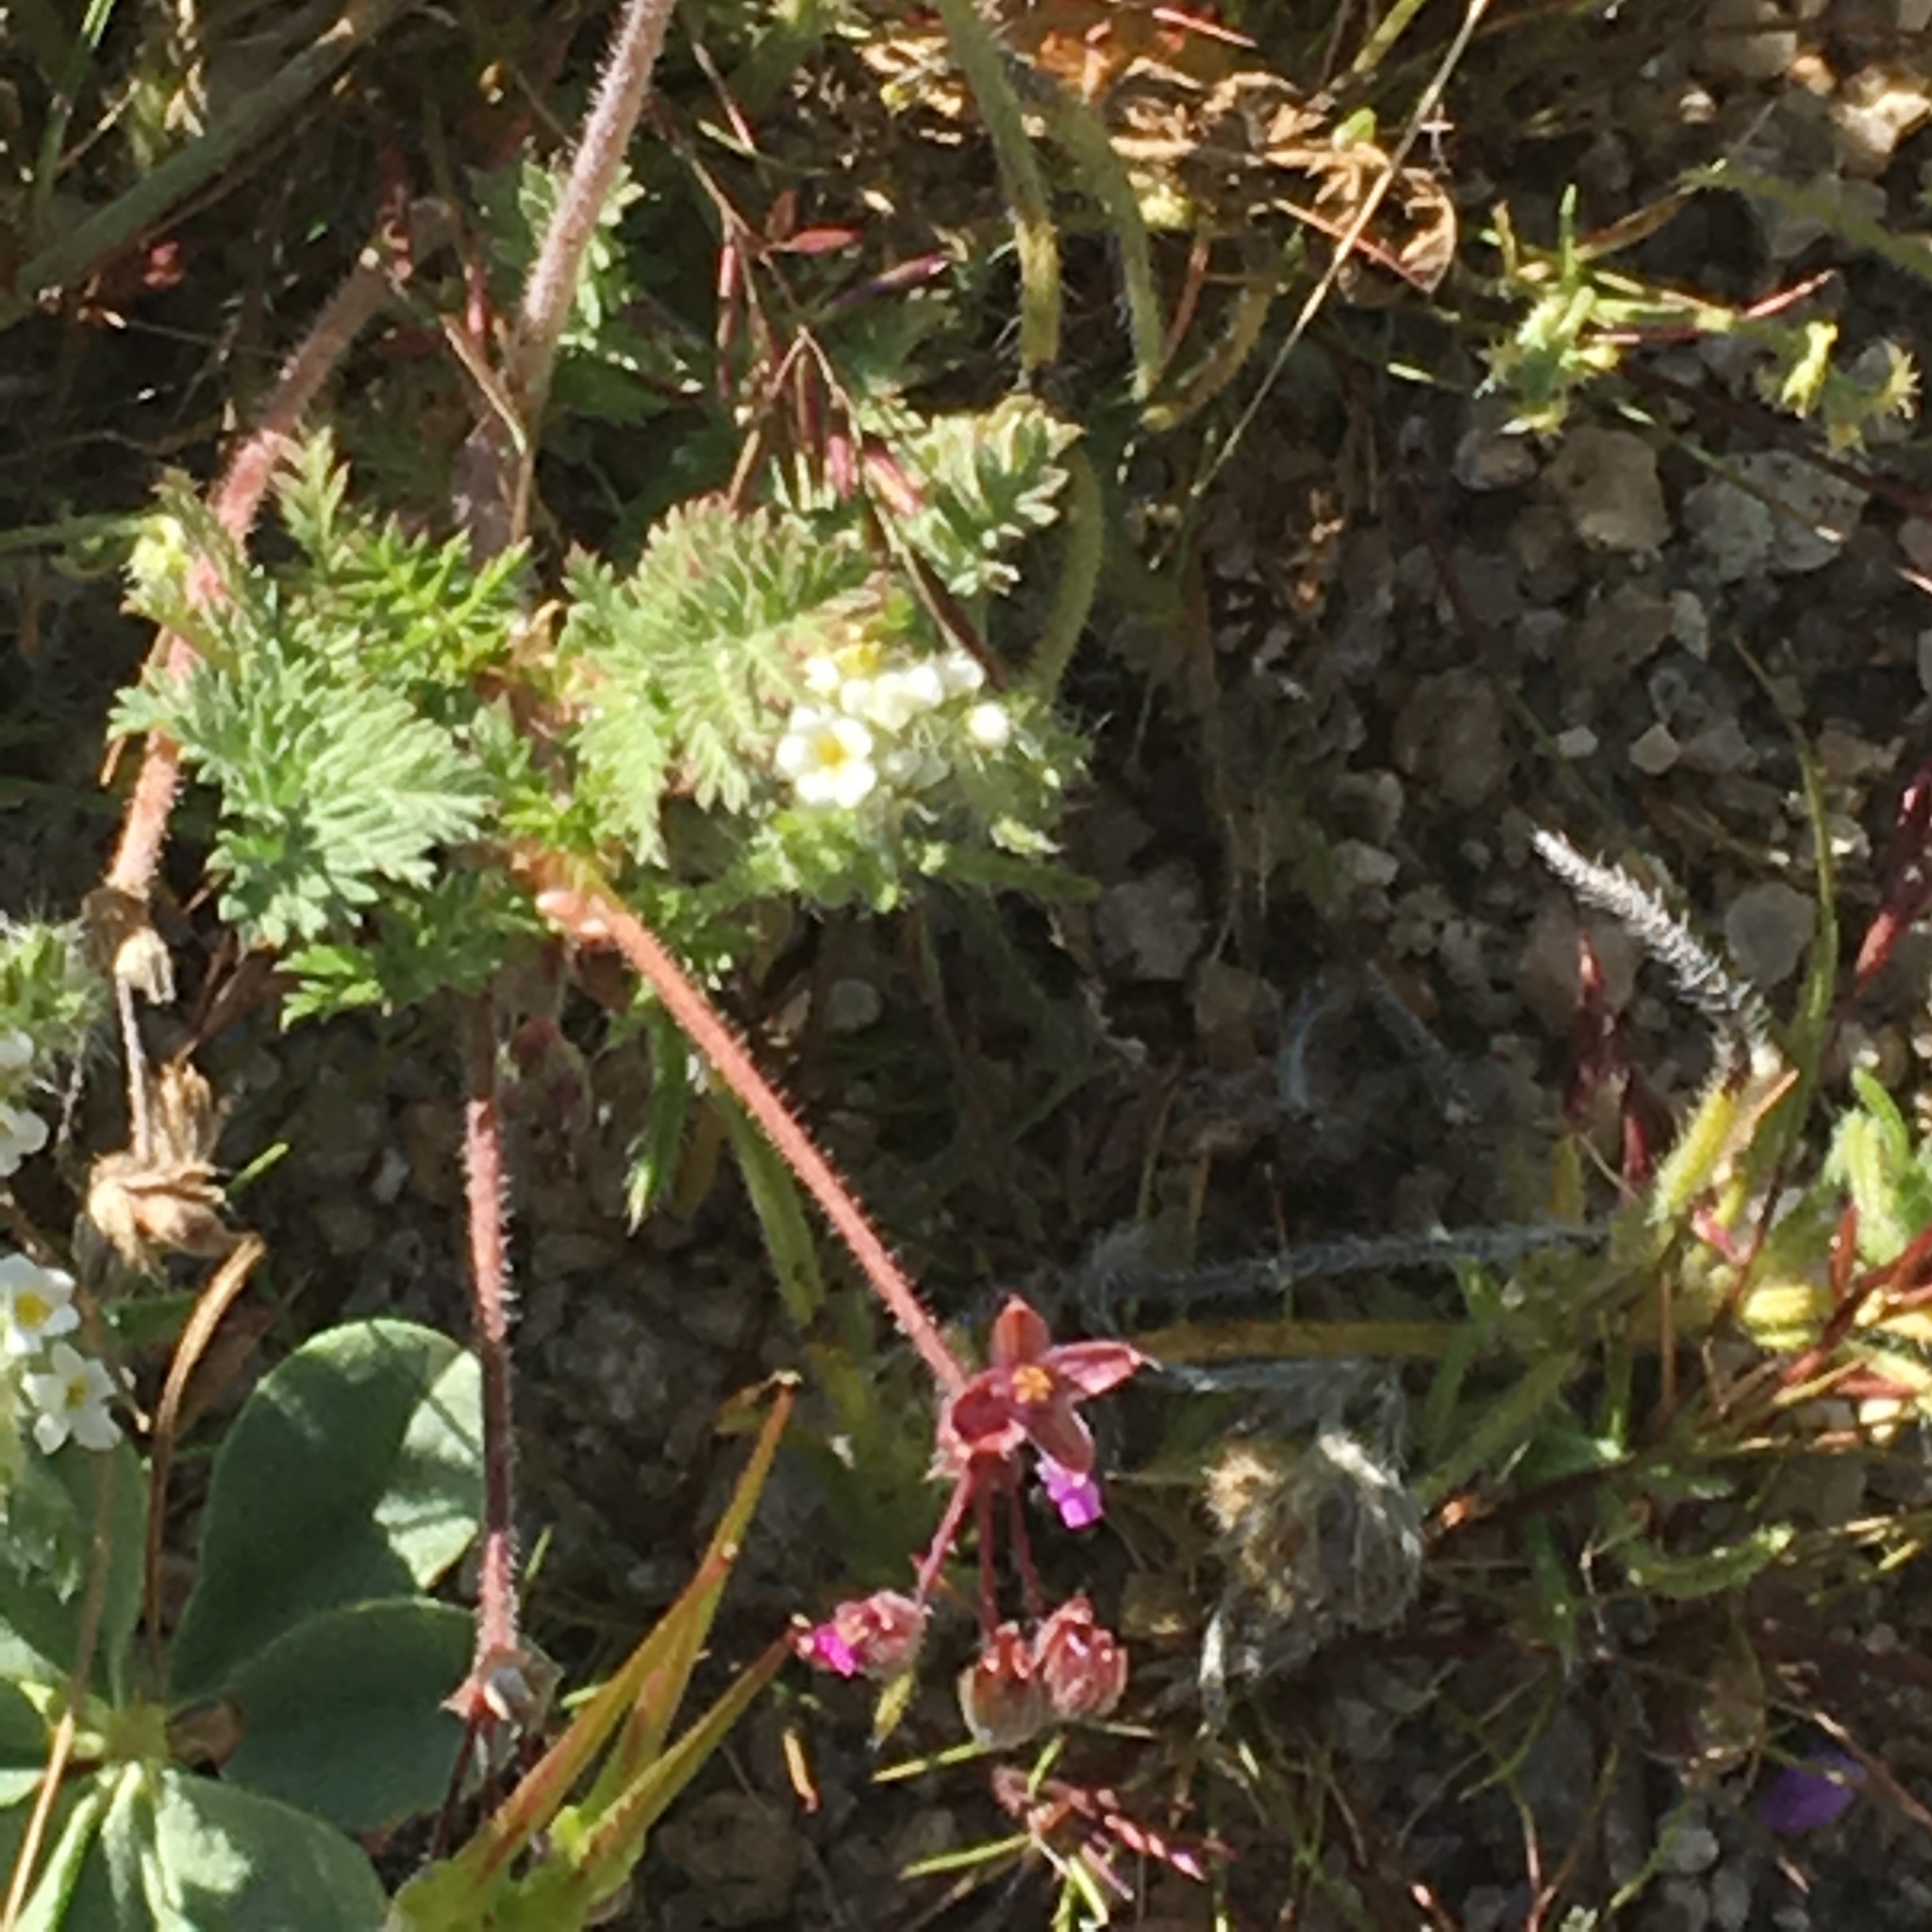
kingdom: Plantae
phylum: Tracheophyta
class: Magnoliopsida
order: Geraniales
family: Geraniaceae
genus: Erodium
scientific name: Erodium cicutarium
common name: Common stork's-bill
